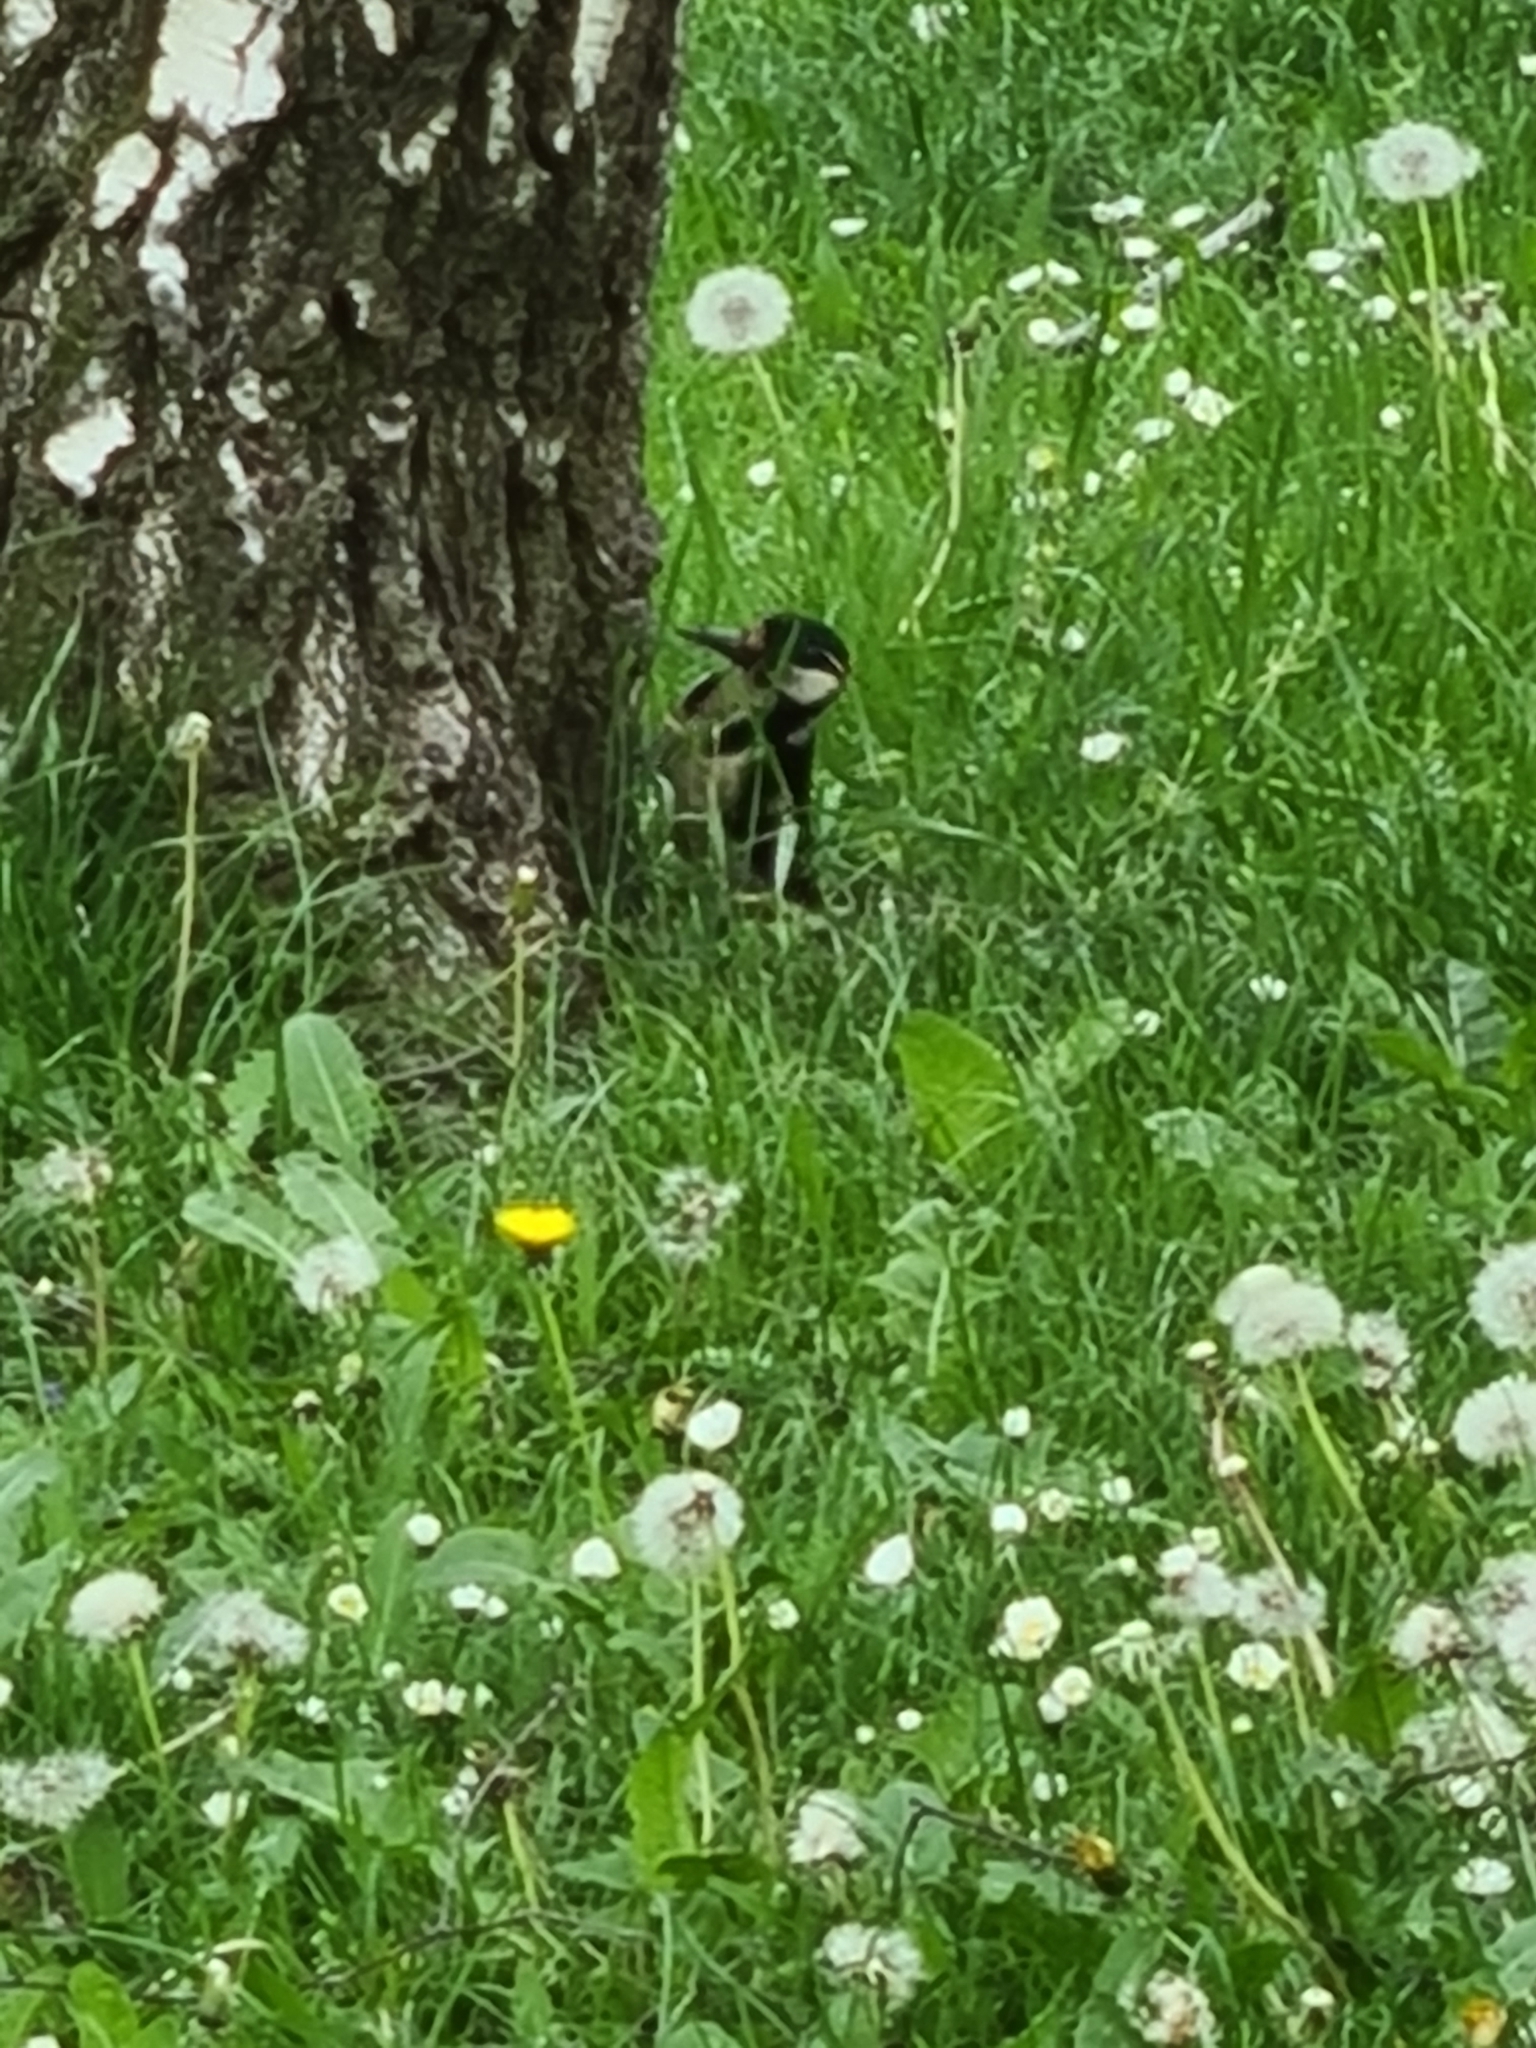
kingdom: Animalia
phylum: Chordata
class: Aves
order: Piciformes
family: Picidae
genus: Dendrocopos
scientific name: Dendrocopos major
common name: Great spotted woodpecker
